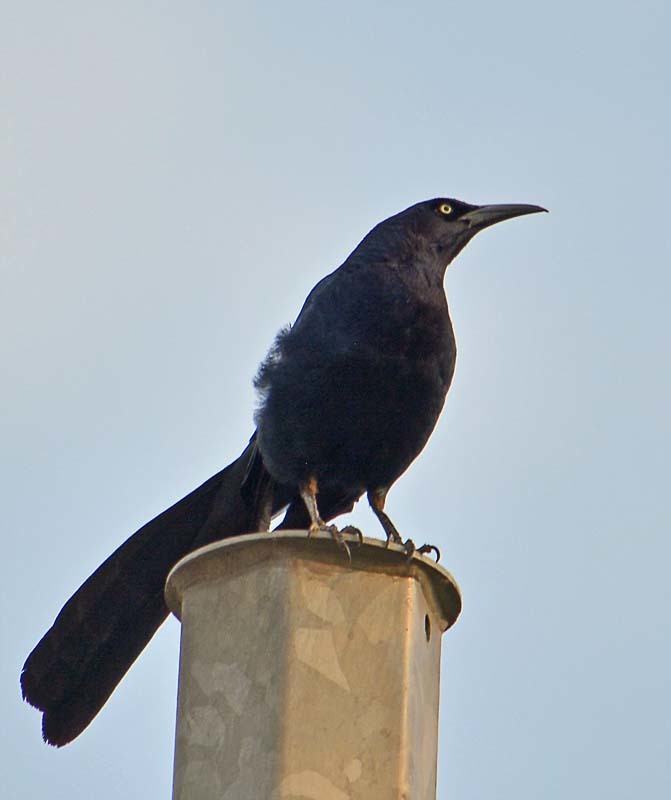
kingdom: Animalia
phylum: Chordata
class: Aves
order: Passeriformes
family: Icteridae
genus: Quiscalus
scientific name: Quiscalus mexicanus
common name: Great-tailed grackle
